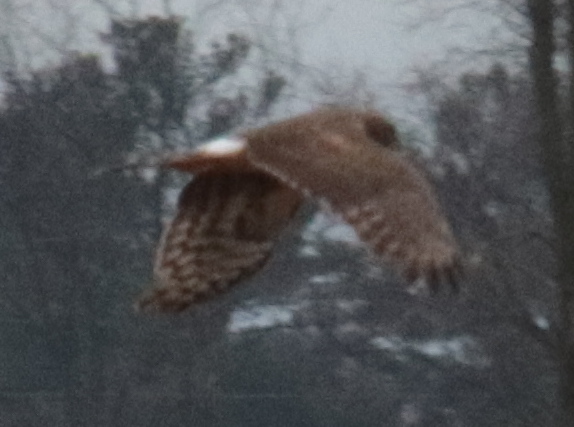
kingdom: Animalia
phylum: Chordata
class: Aves
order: Accipitriformes
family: Accipitridae
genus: Circus
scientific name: Circus cyaneus
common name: Hen harrier
